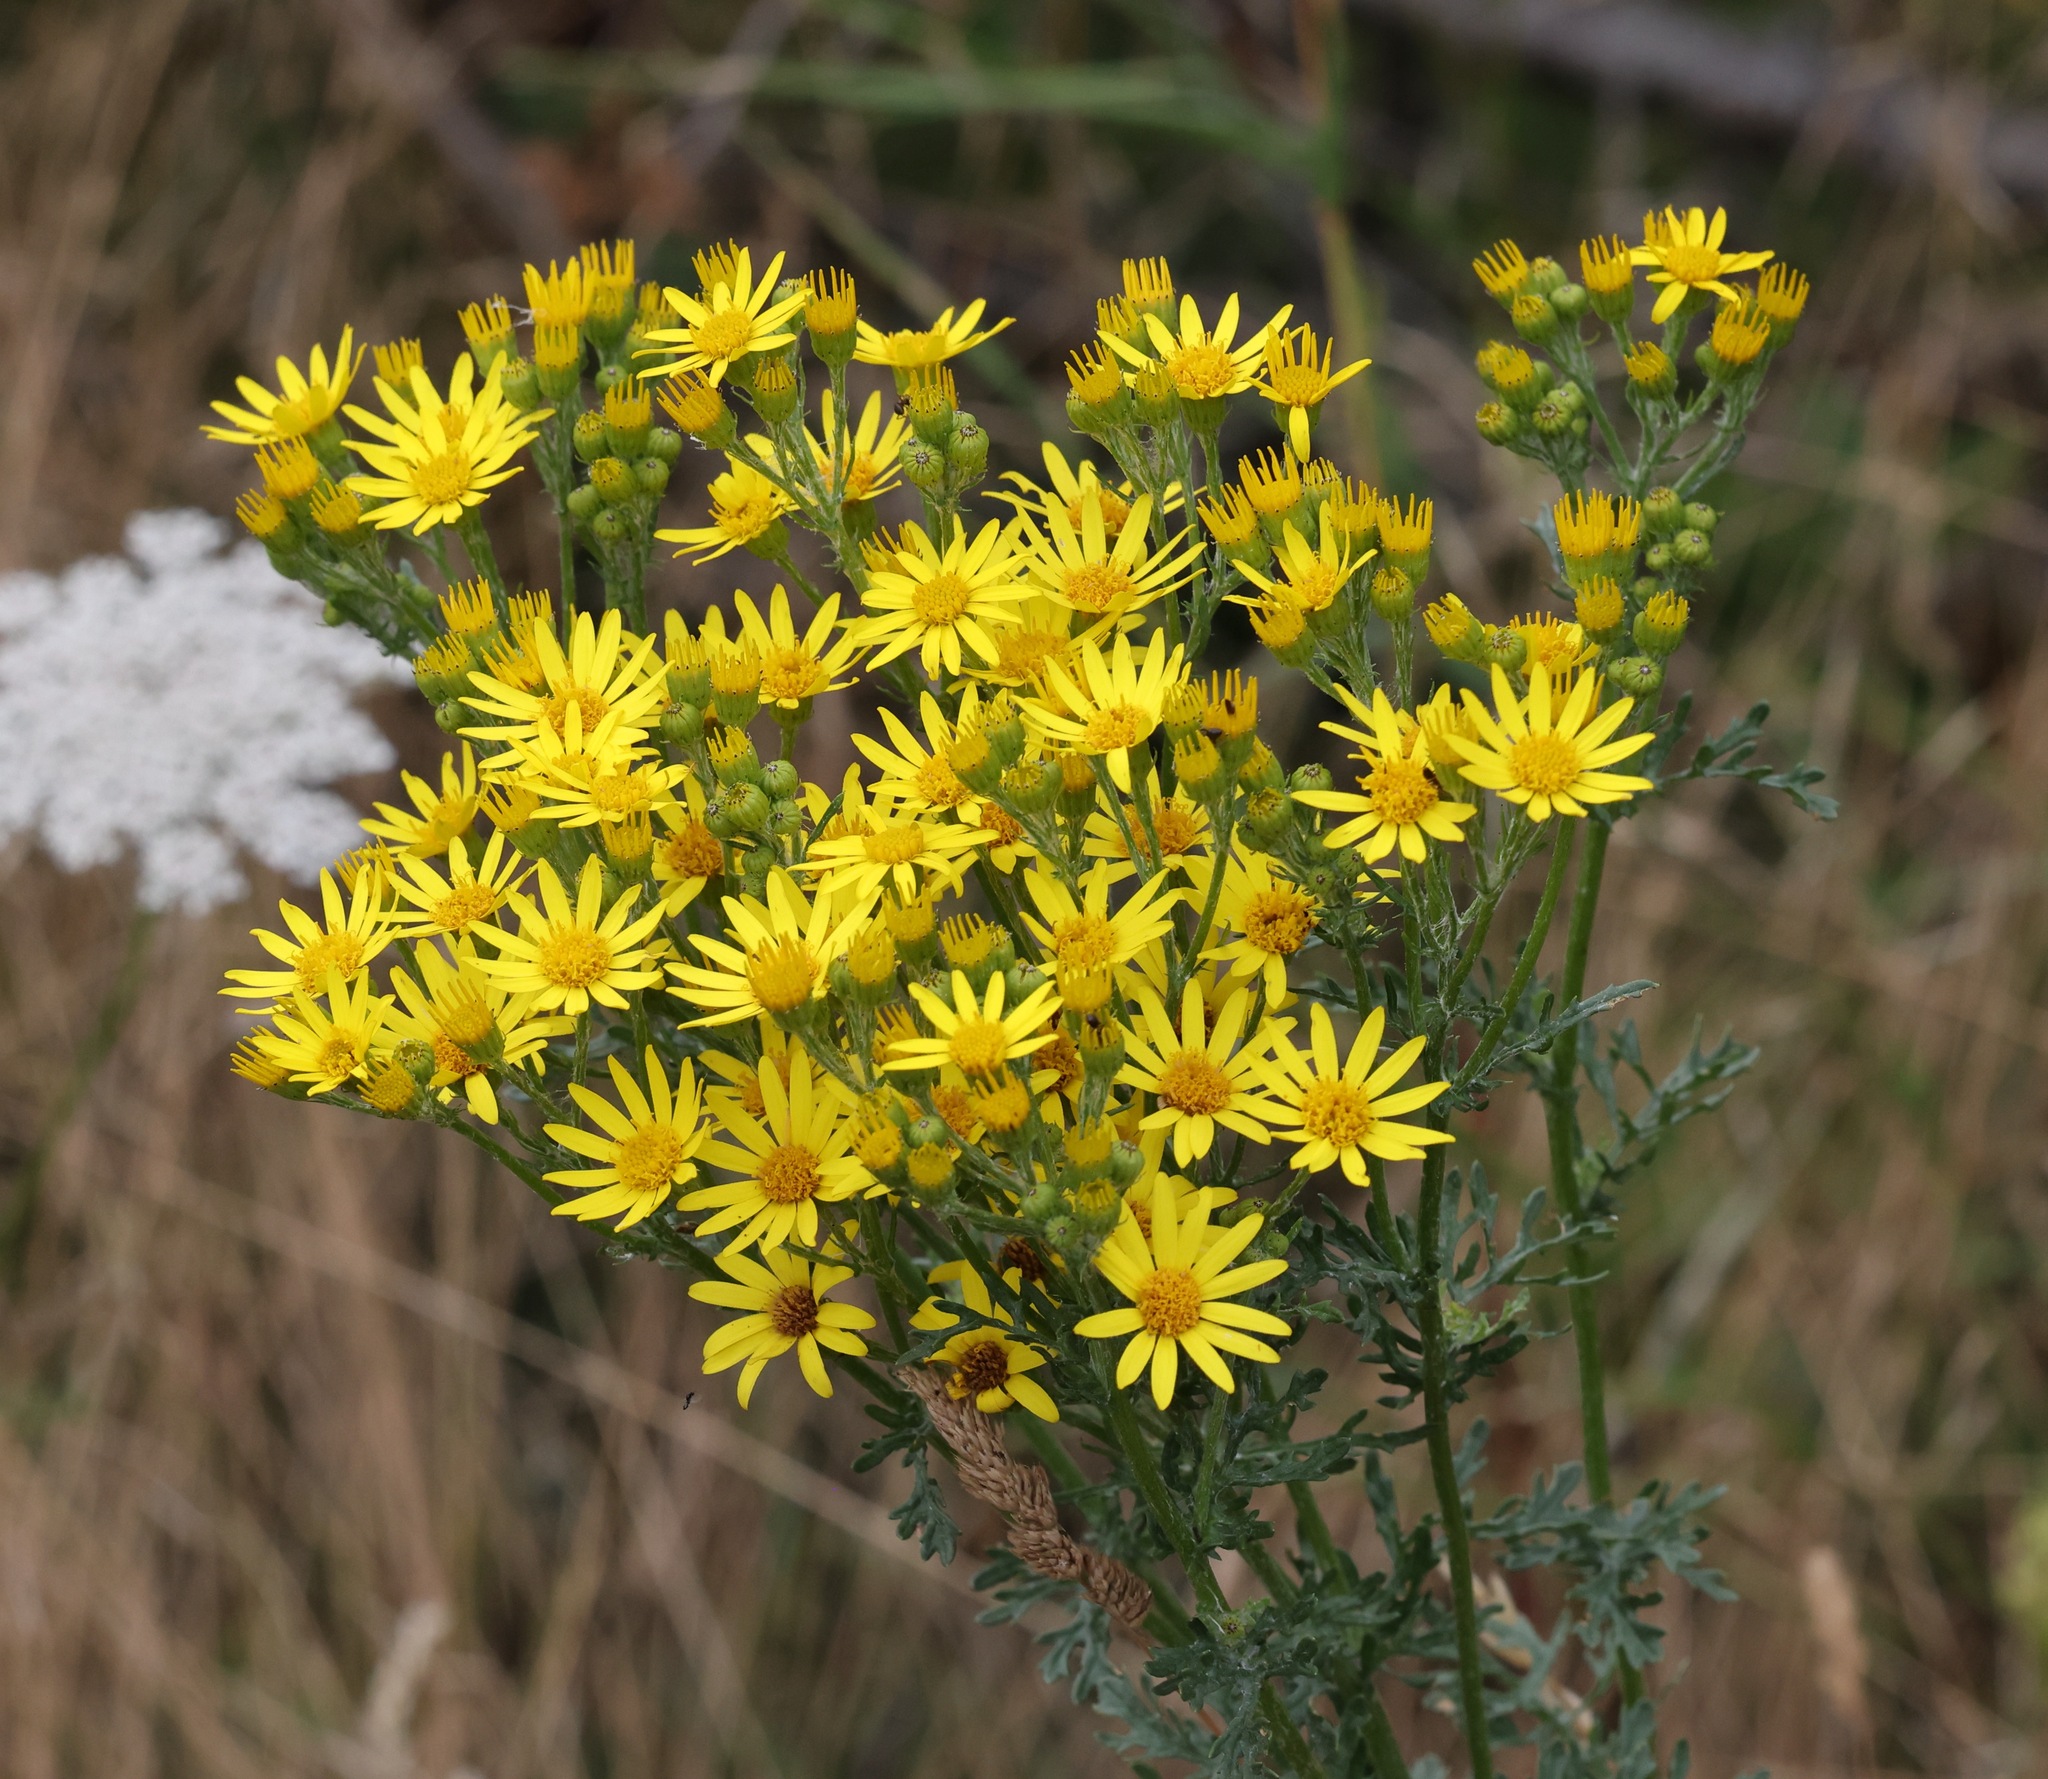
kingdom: Plantae
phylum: Tracheophyta
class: Magnoliopsida
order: Asterales
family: Asteraceae
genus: Jacobaea
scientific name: Jacobaea vulgaris
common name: Stinking willie
